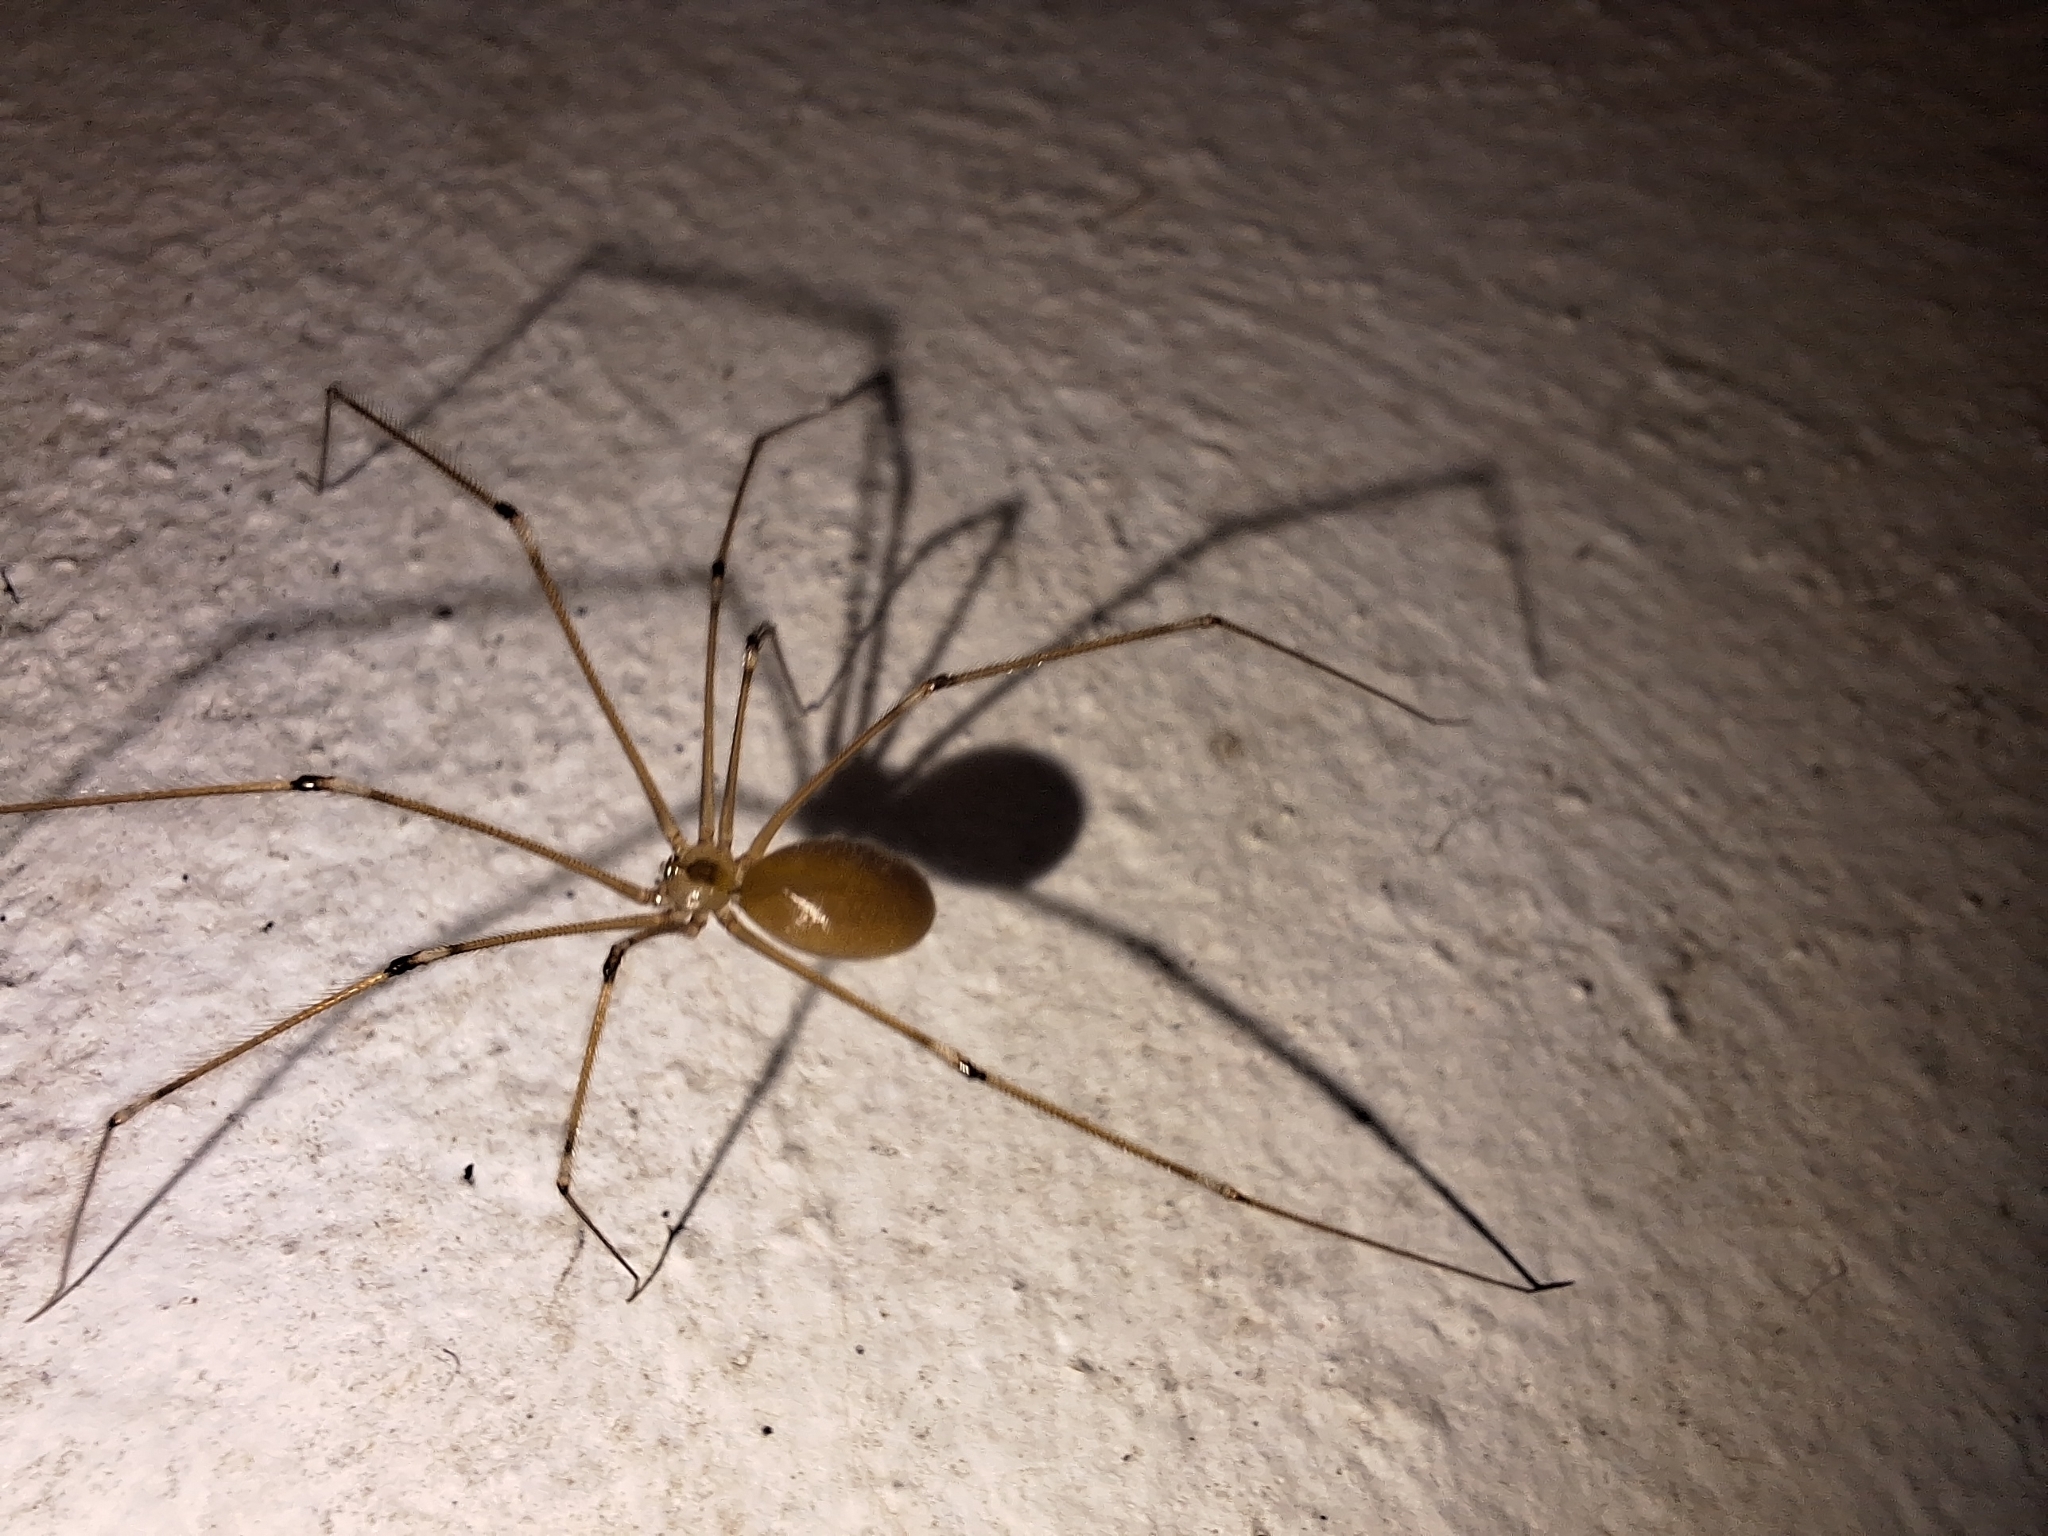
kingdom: Animalia
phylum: Arthropoda
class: Arachnida
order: Araneae
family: Pholcidae
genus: Pholcus
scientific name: Pholcus phalangioides
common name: Longbodied cellar spider
